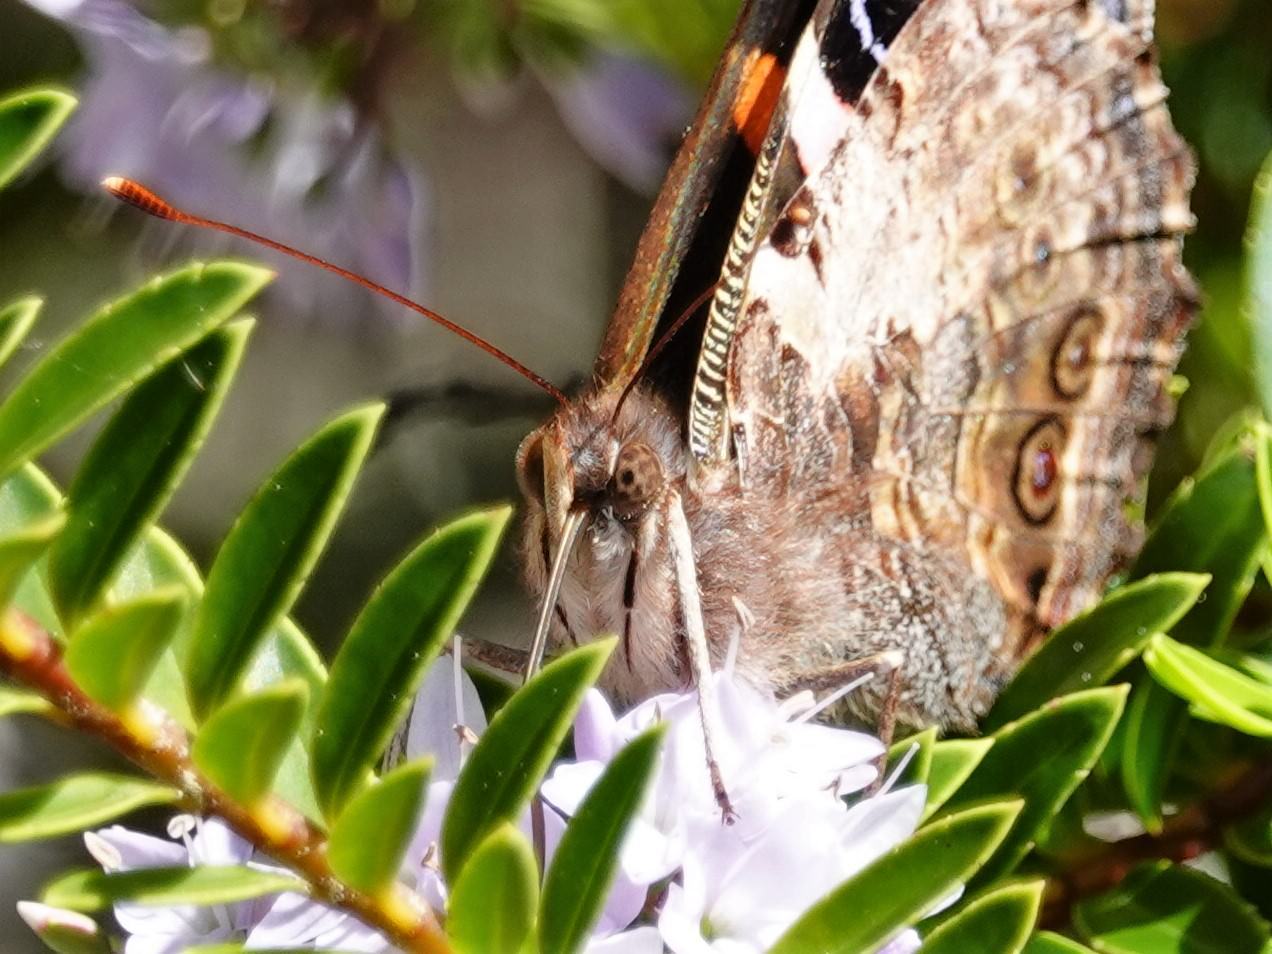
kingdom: Animalia
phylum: Arthropoda
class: Insecta
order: Lepidoptera
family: Nymphalidae
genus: Vanessa
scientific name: Vanessa gonerilla
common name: New zealand red admiral
